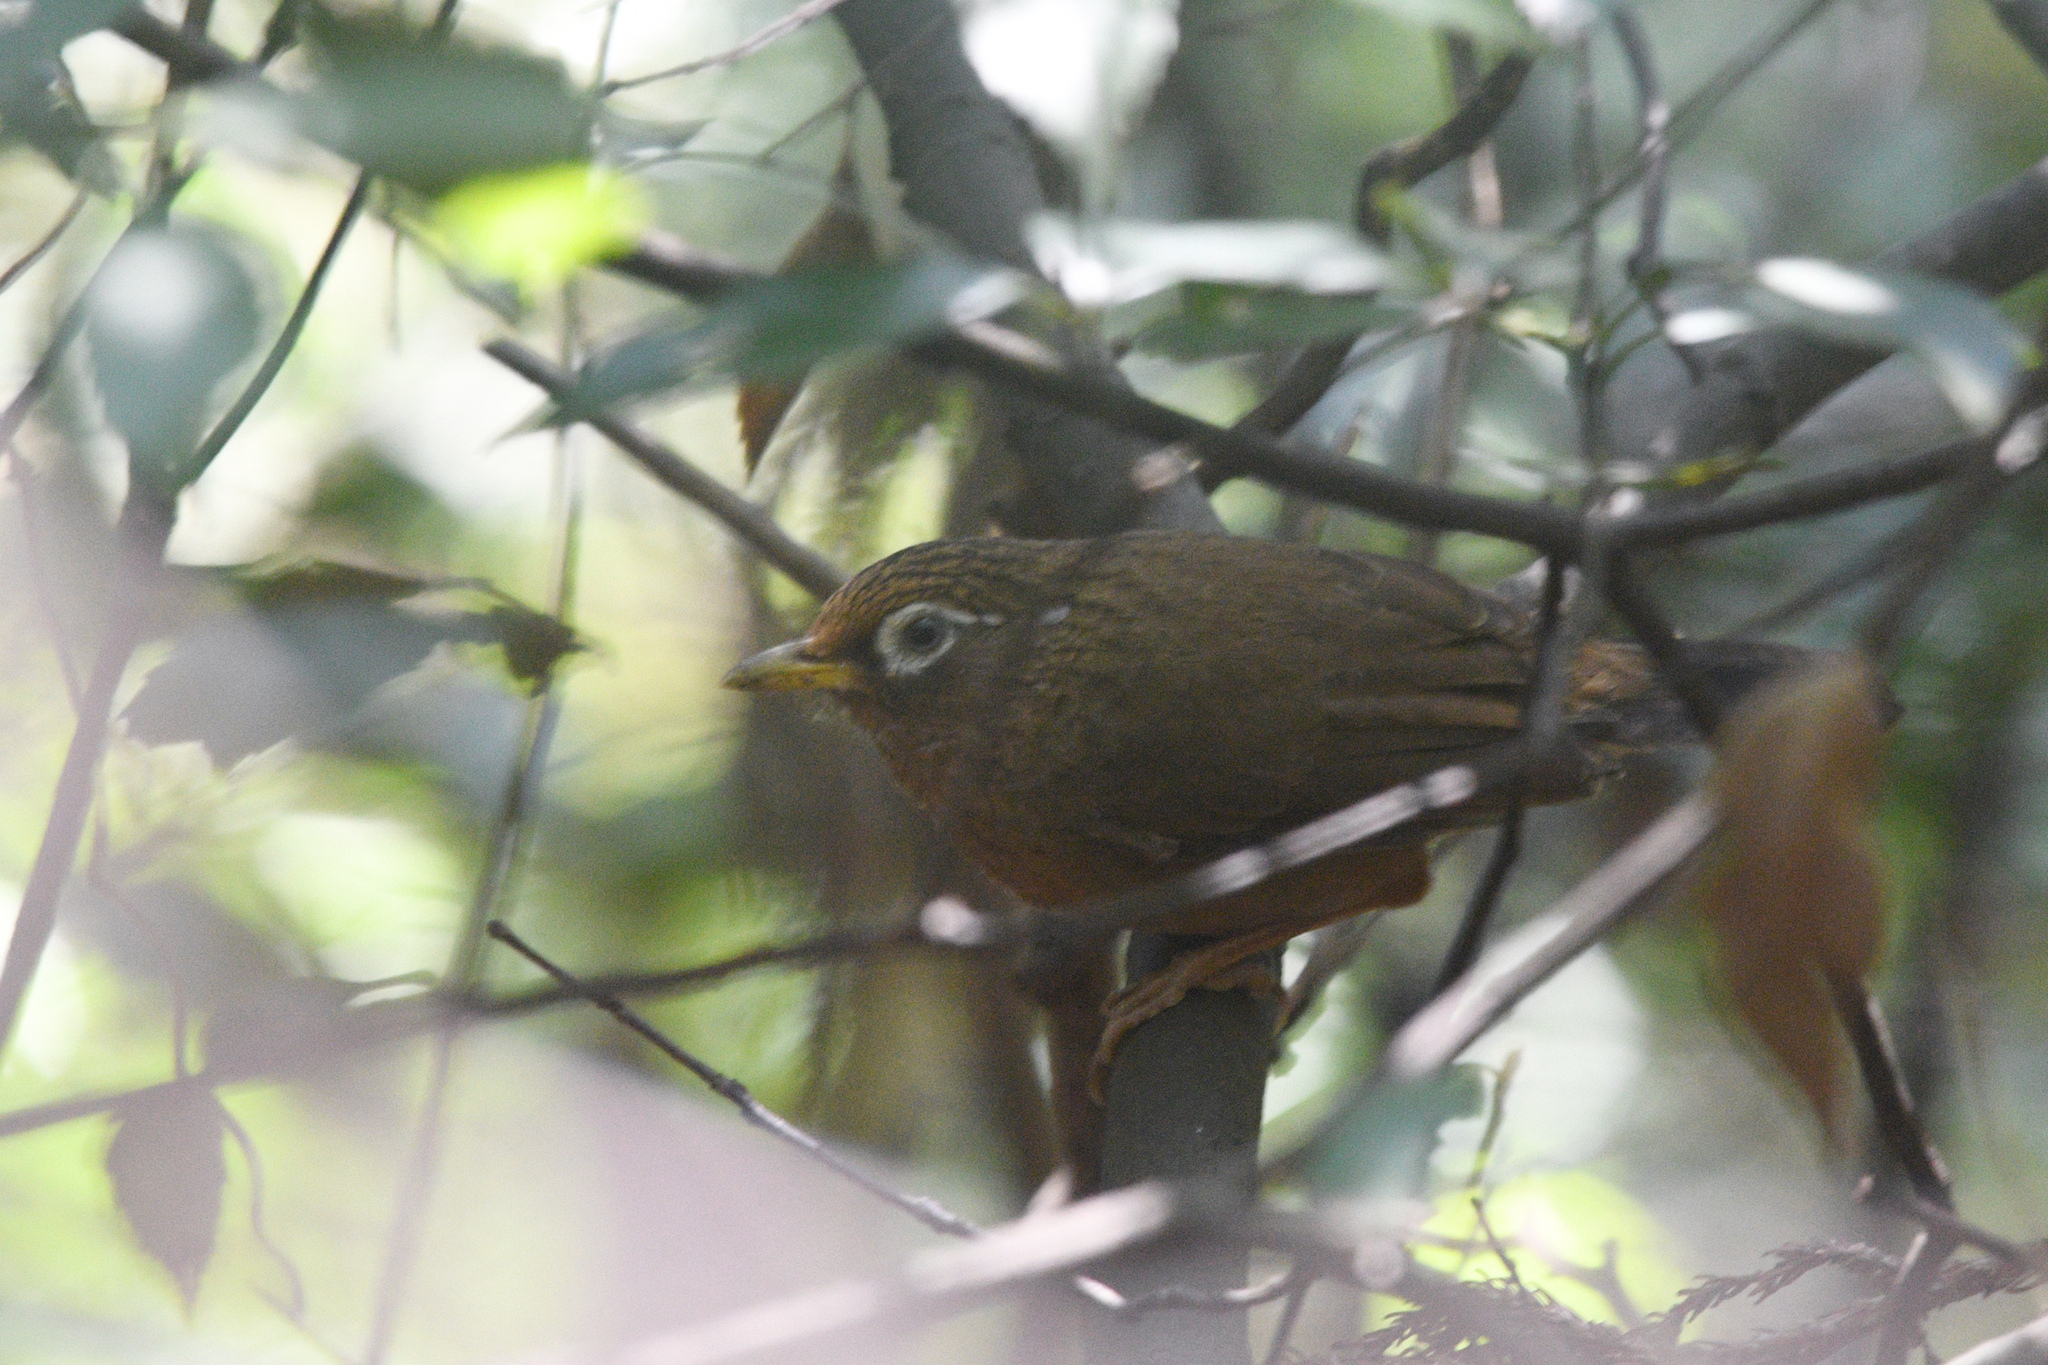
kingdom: Animalia
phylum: Chordata
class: Aves
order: Passeriformes
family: Leiothrichidae
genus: Garrulax
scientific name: Garrulax canorus
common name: Chinese hwamei
